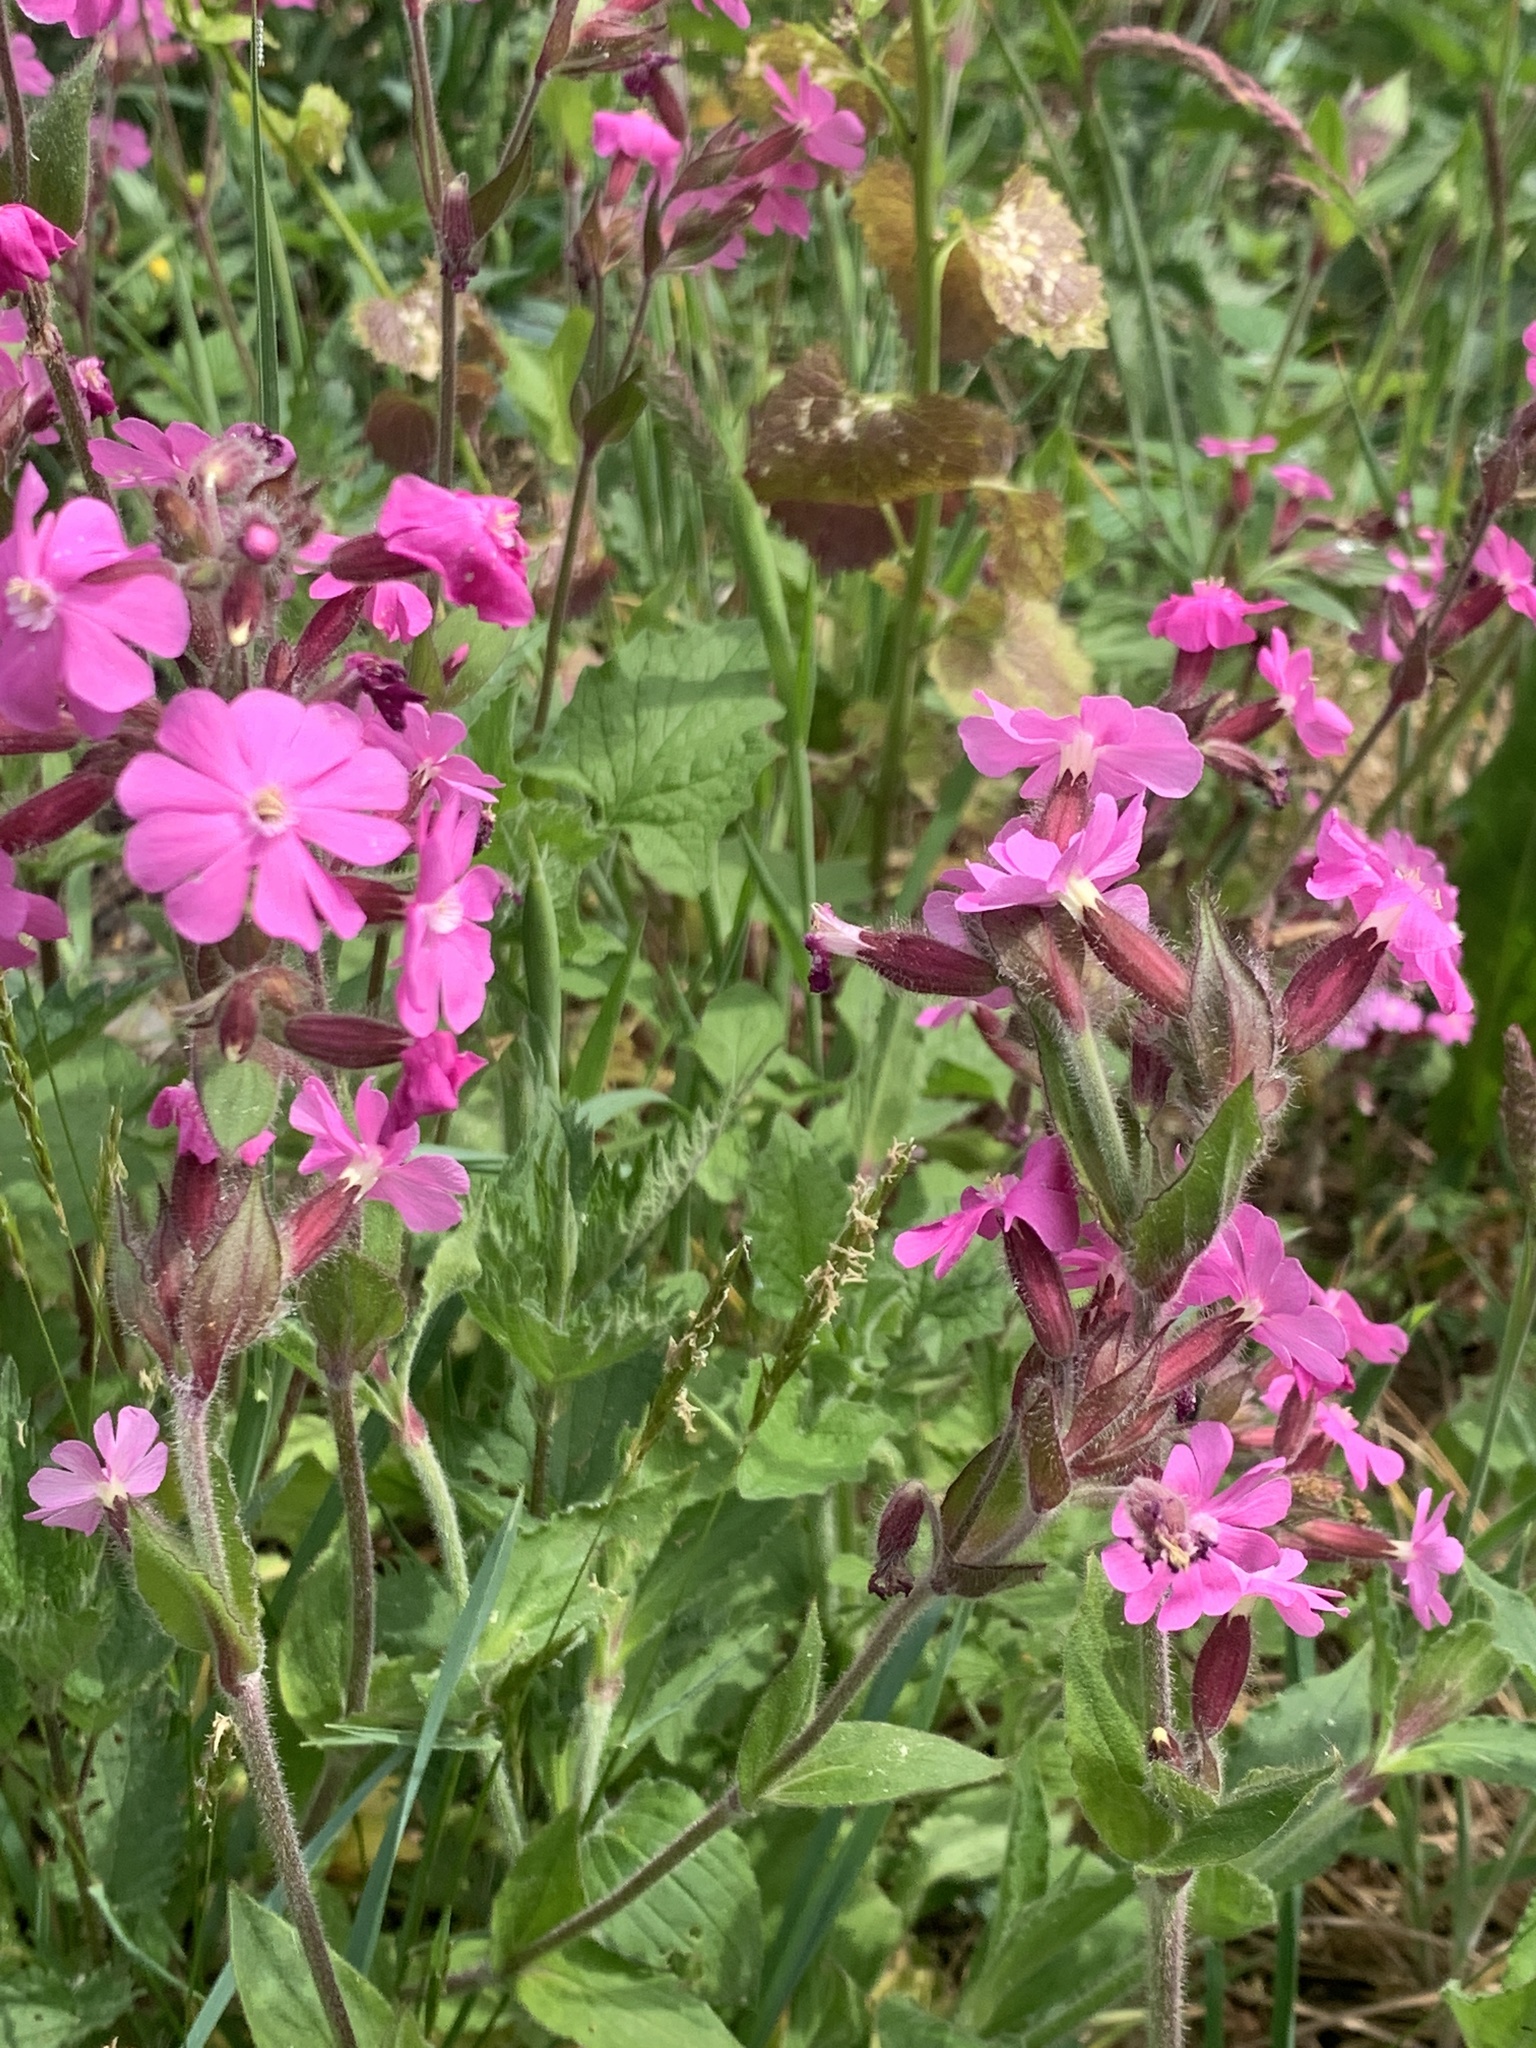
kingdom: Plantae
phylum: Tracheophyta
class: Magnoliopsida
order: Caryophyllales
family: Caryophyllaceae
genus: Silene
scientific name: Silene dioica
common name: Red campion
